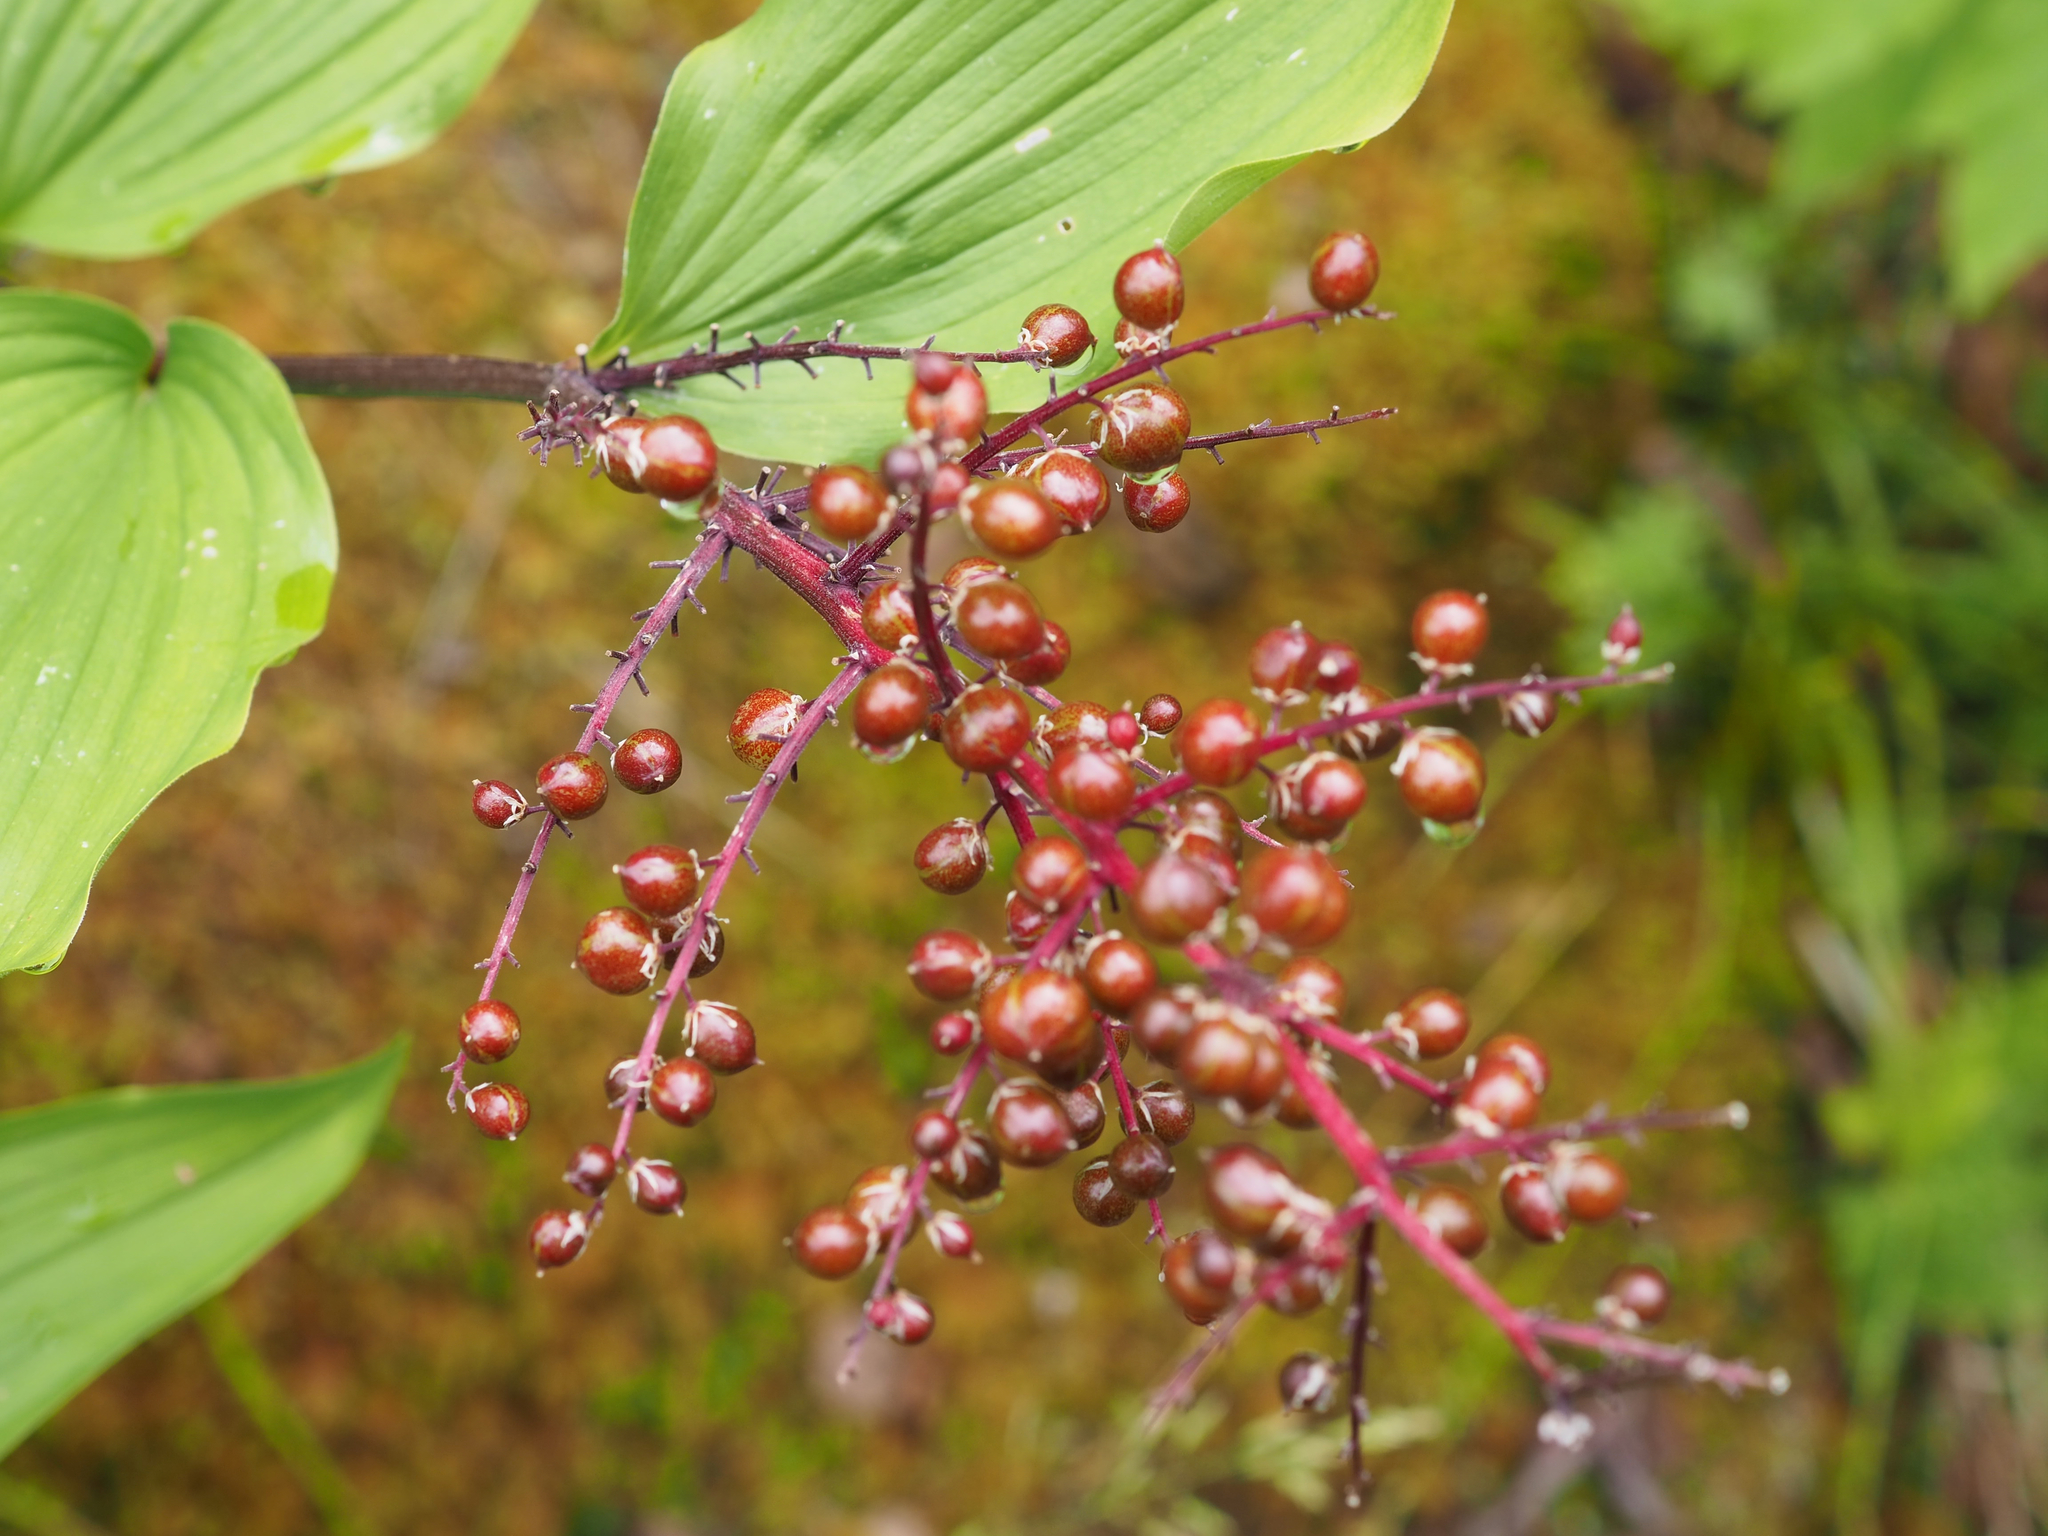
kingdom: Plantae
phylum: Tracheophyta
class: Liliopsida
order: Asparagales
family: Asparagaceae
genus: Maianthemum
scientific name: Maianthemum racemosum
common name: False spikenard
